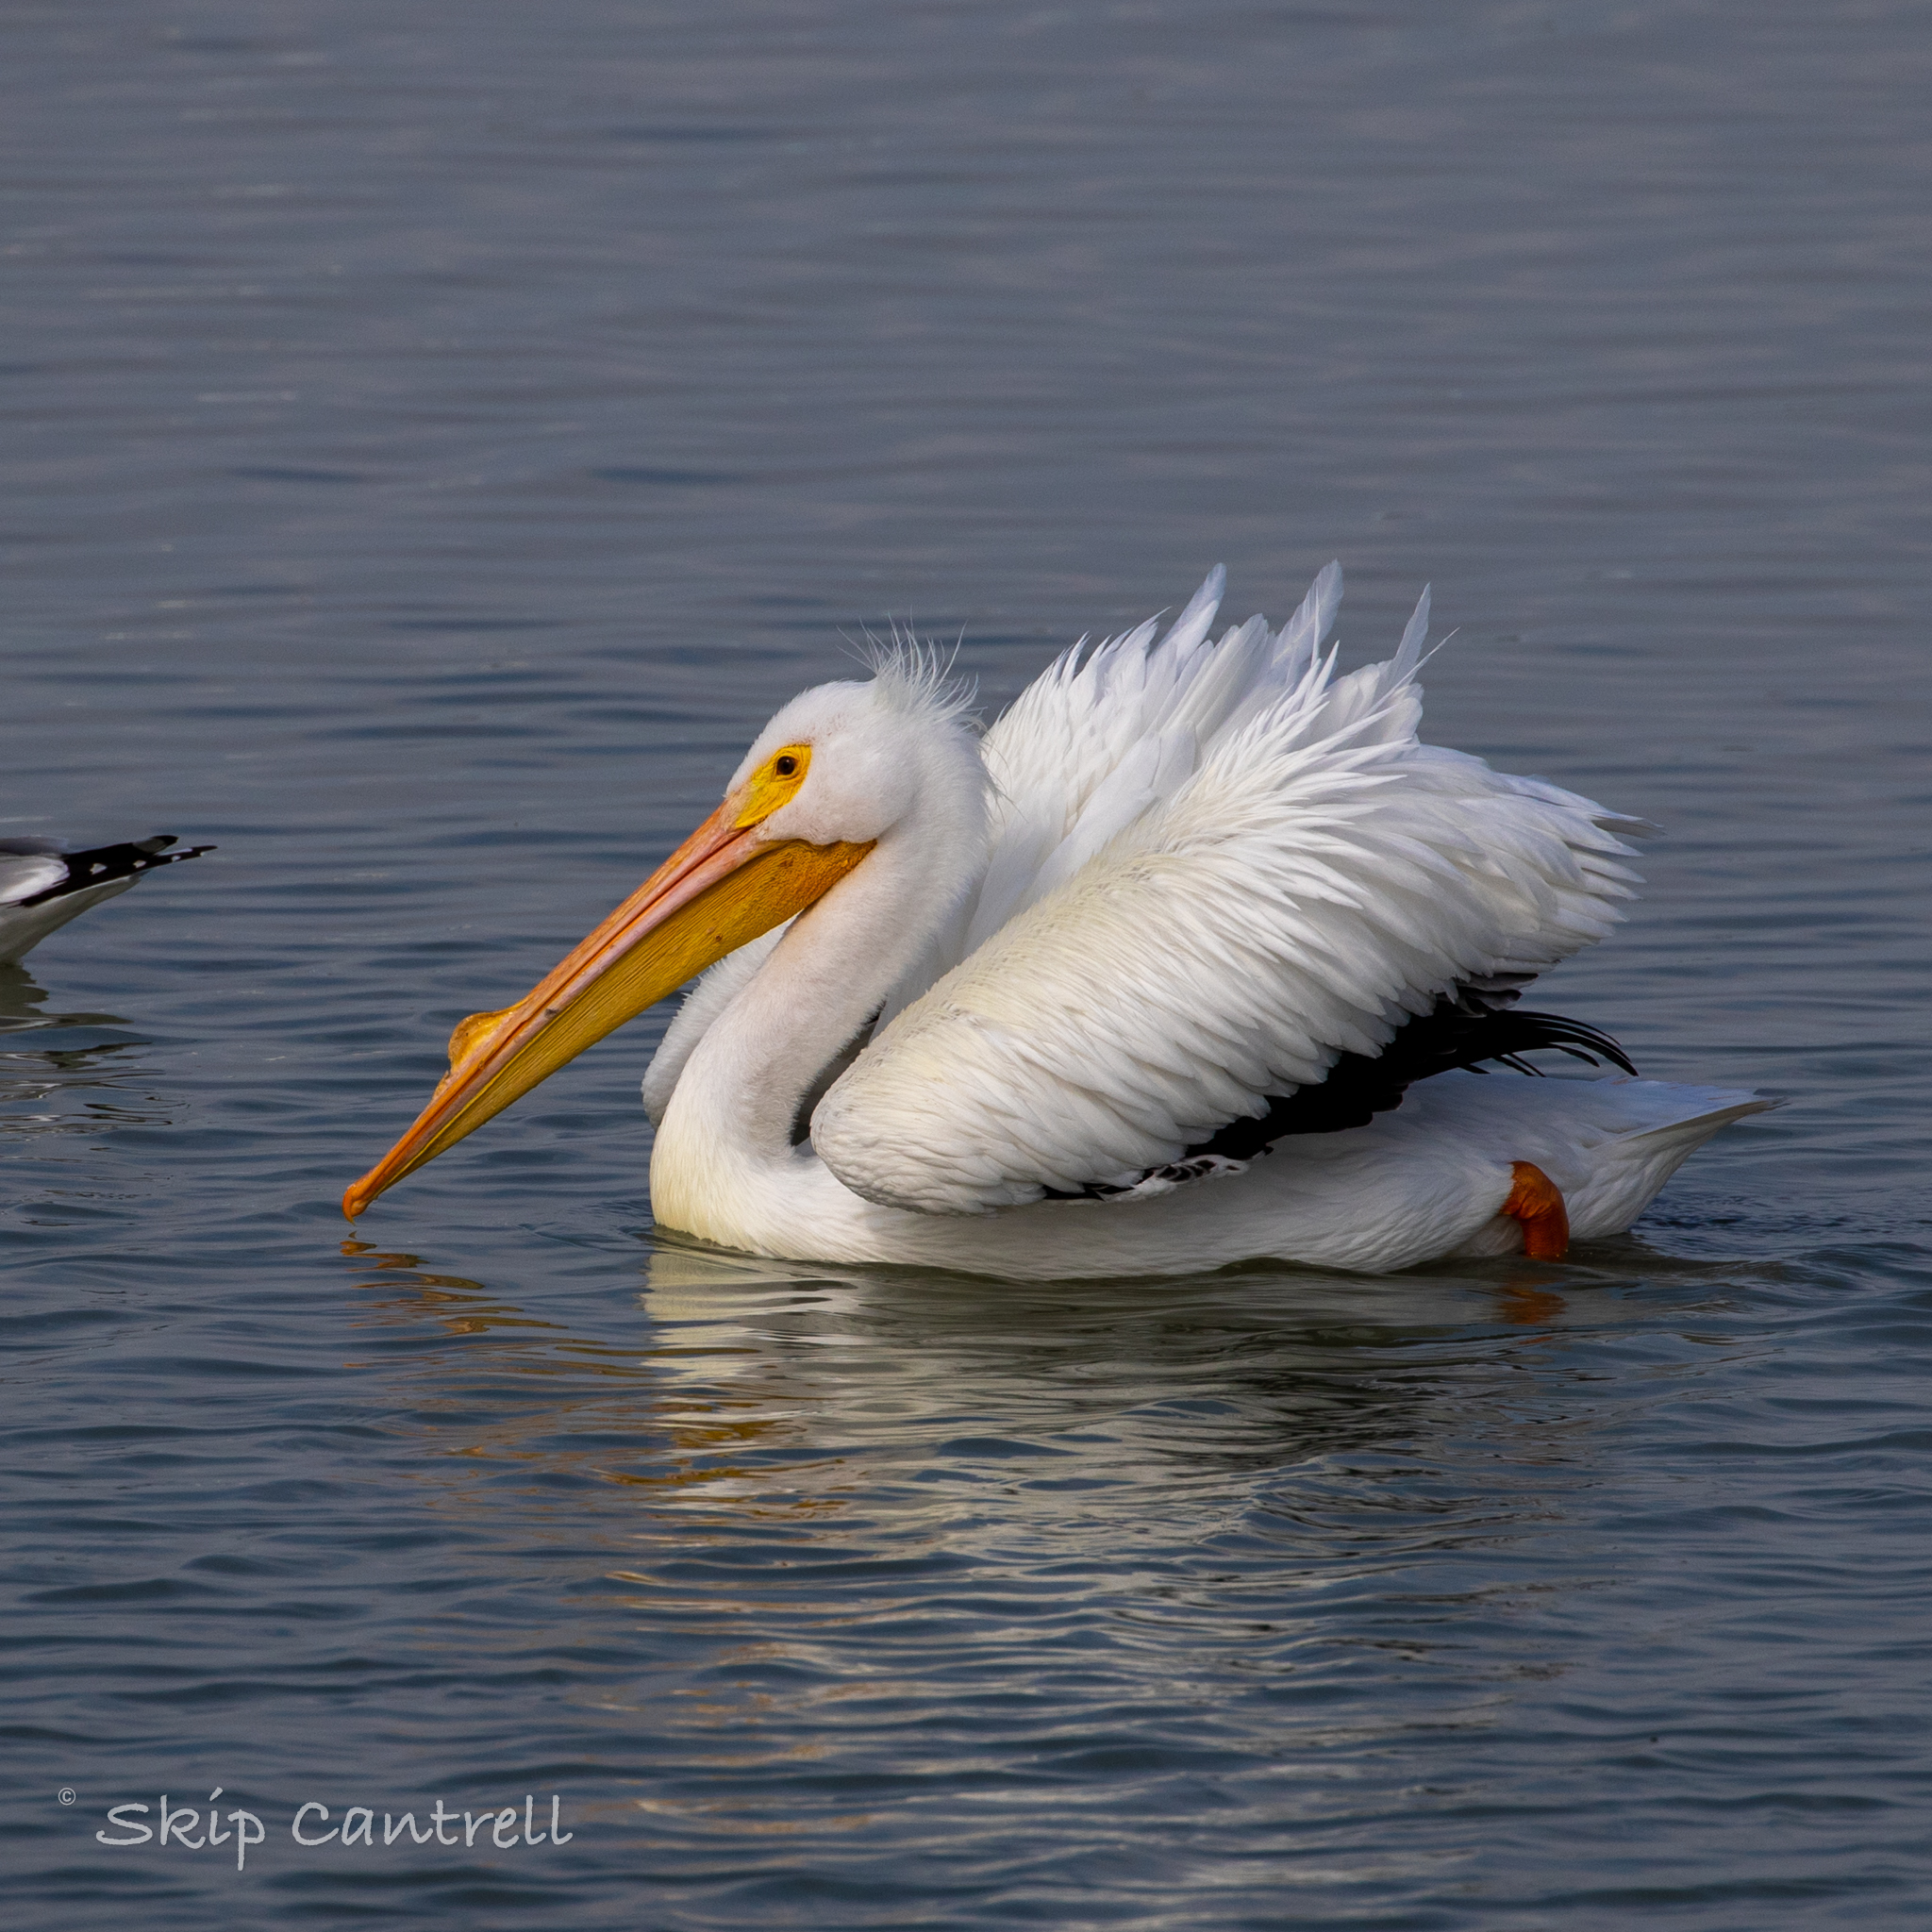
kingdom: Animalia
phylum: Chordata
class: Aves
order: Pelecaniformes
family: Pelecanidae
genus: Pelecanus
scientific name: Pelecanus erythrorhynchos
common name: American white pelican
